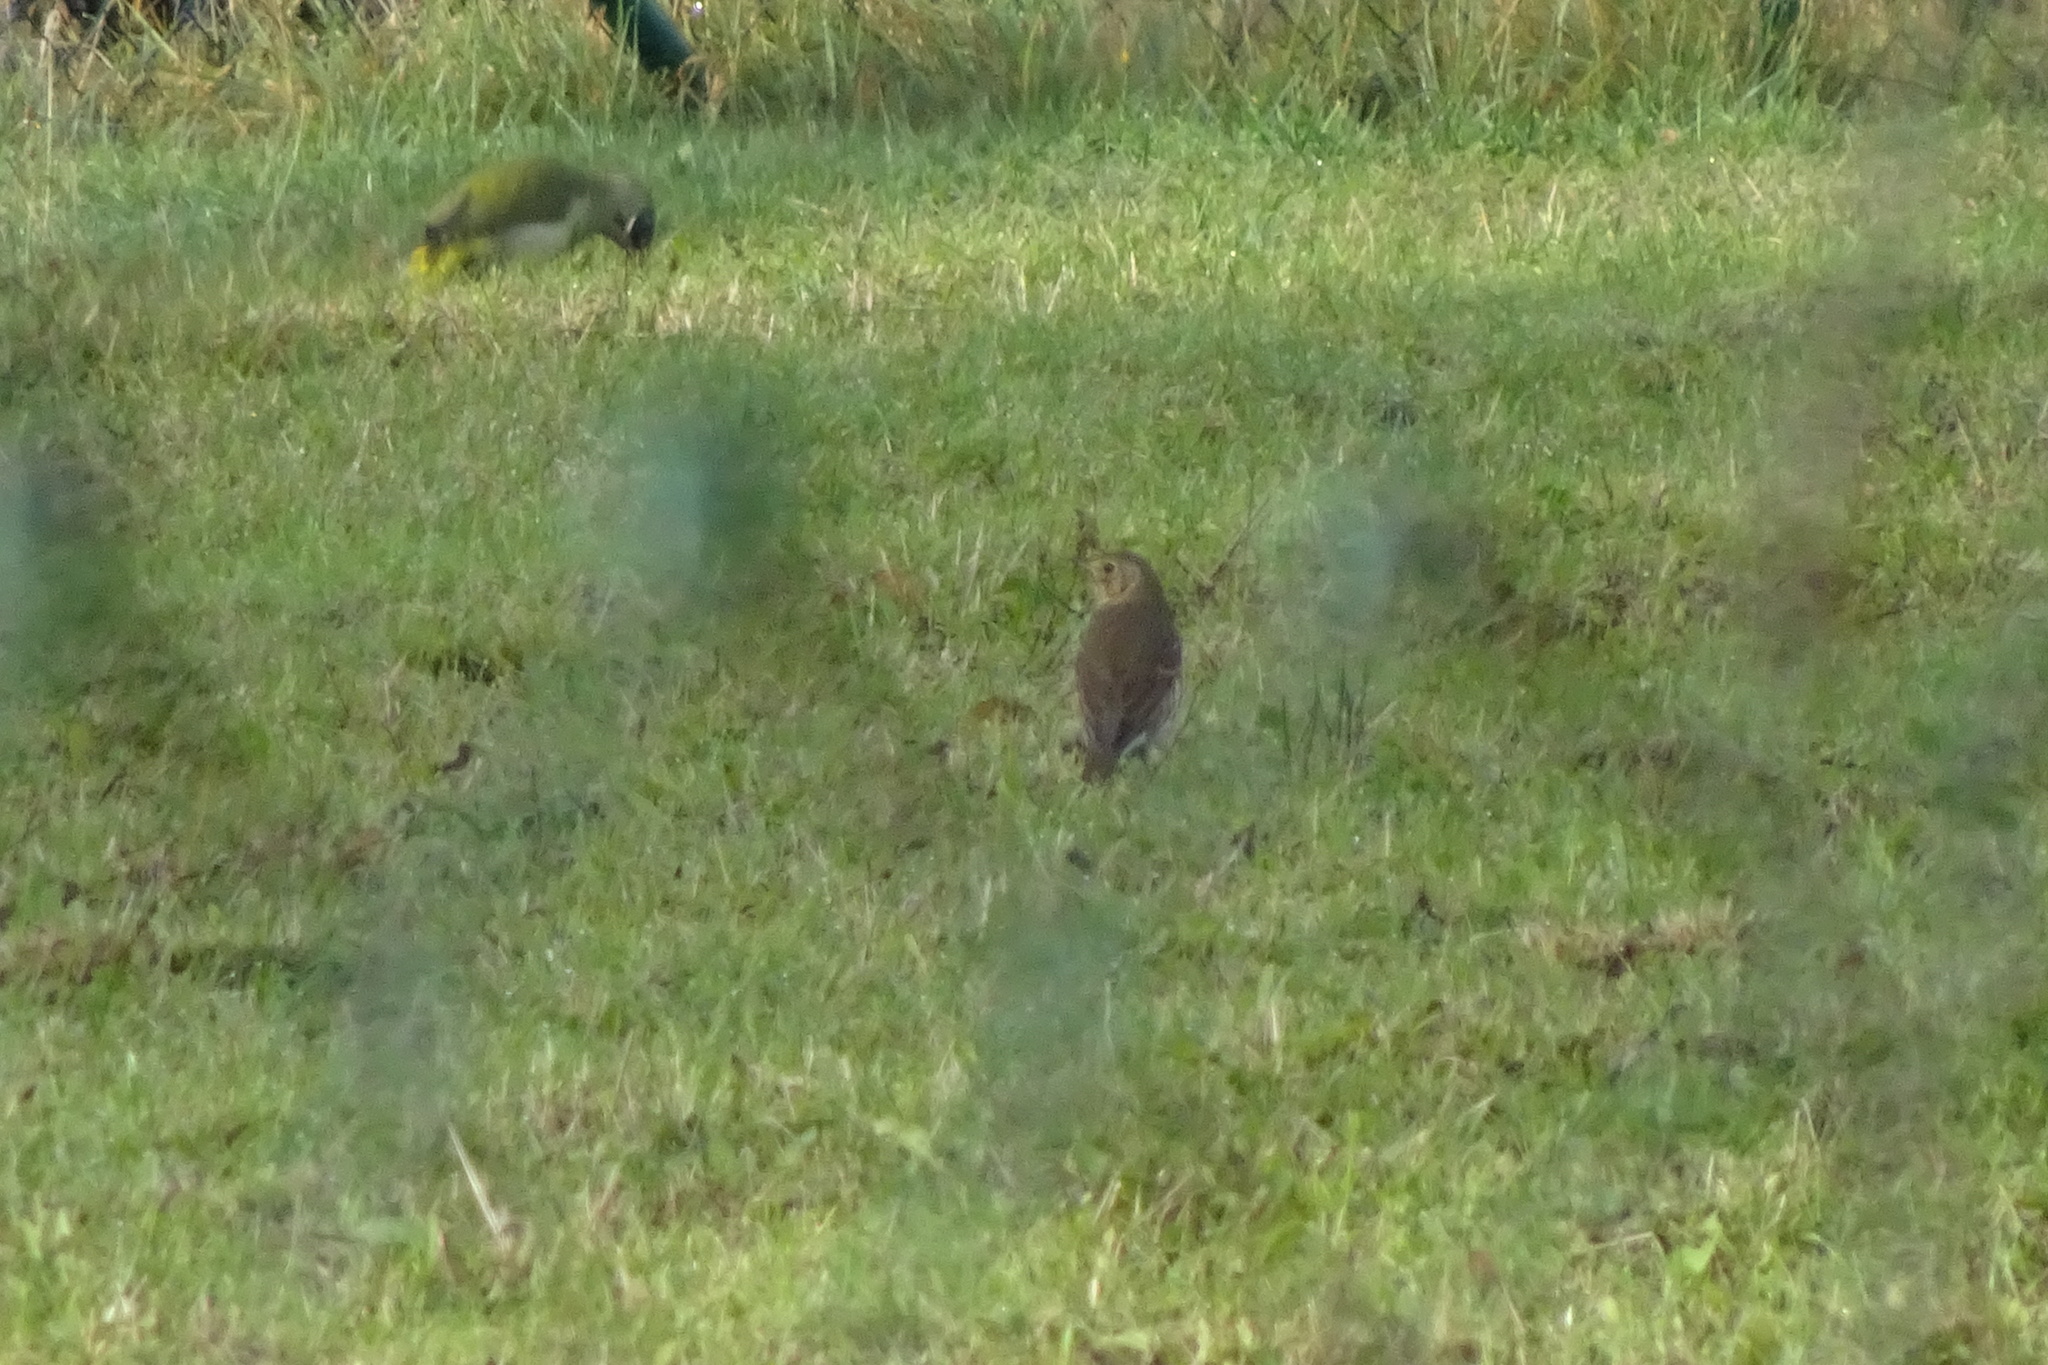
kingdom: Animalia
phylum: Chordata
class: Aves
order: Passeriformes
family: Turdidae
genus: Turdus
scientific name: Turdus philomelos
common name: Song thrush
